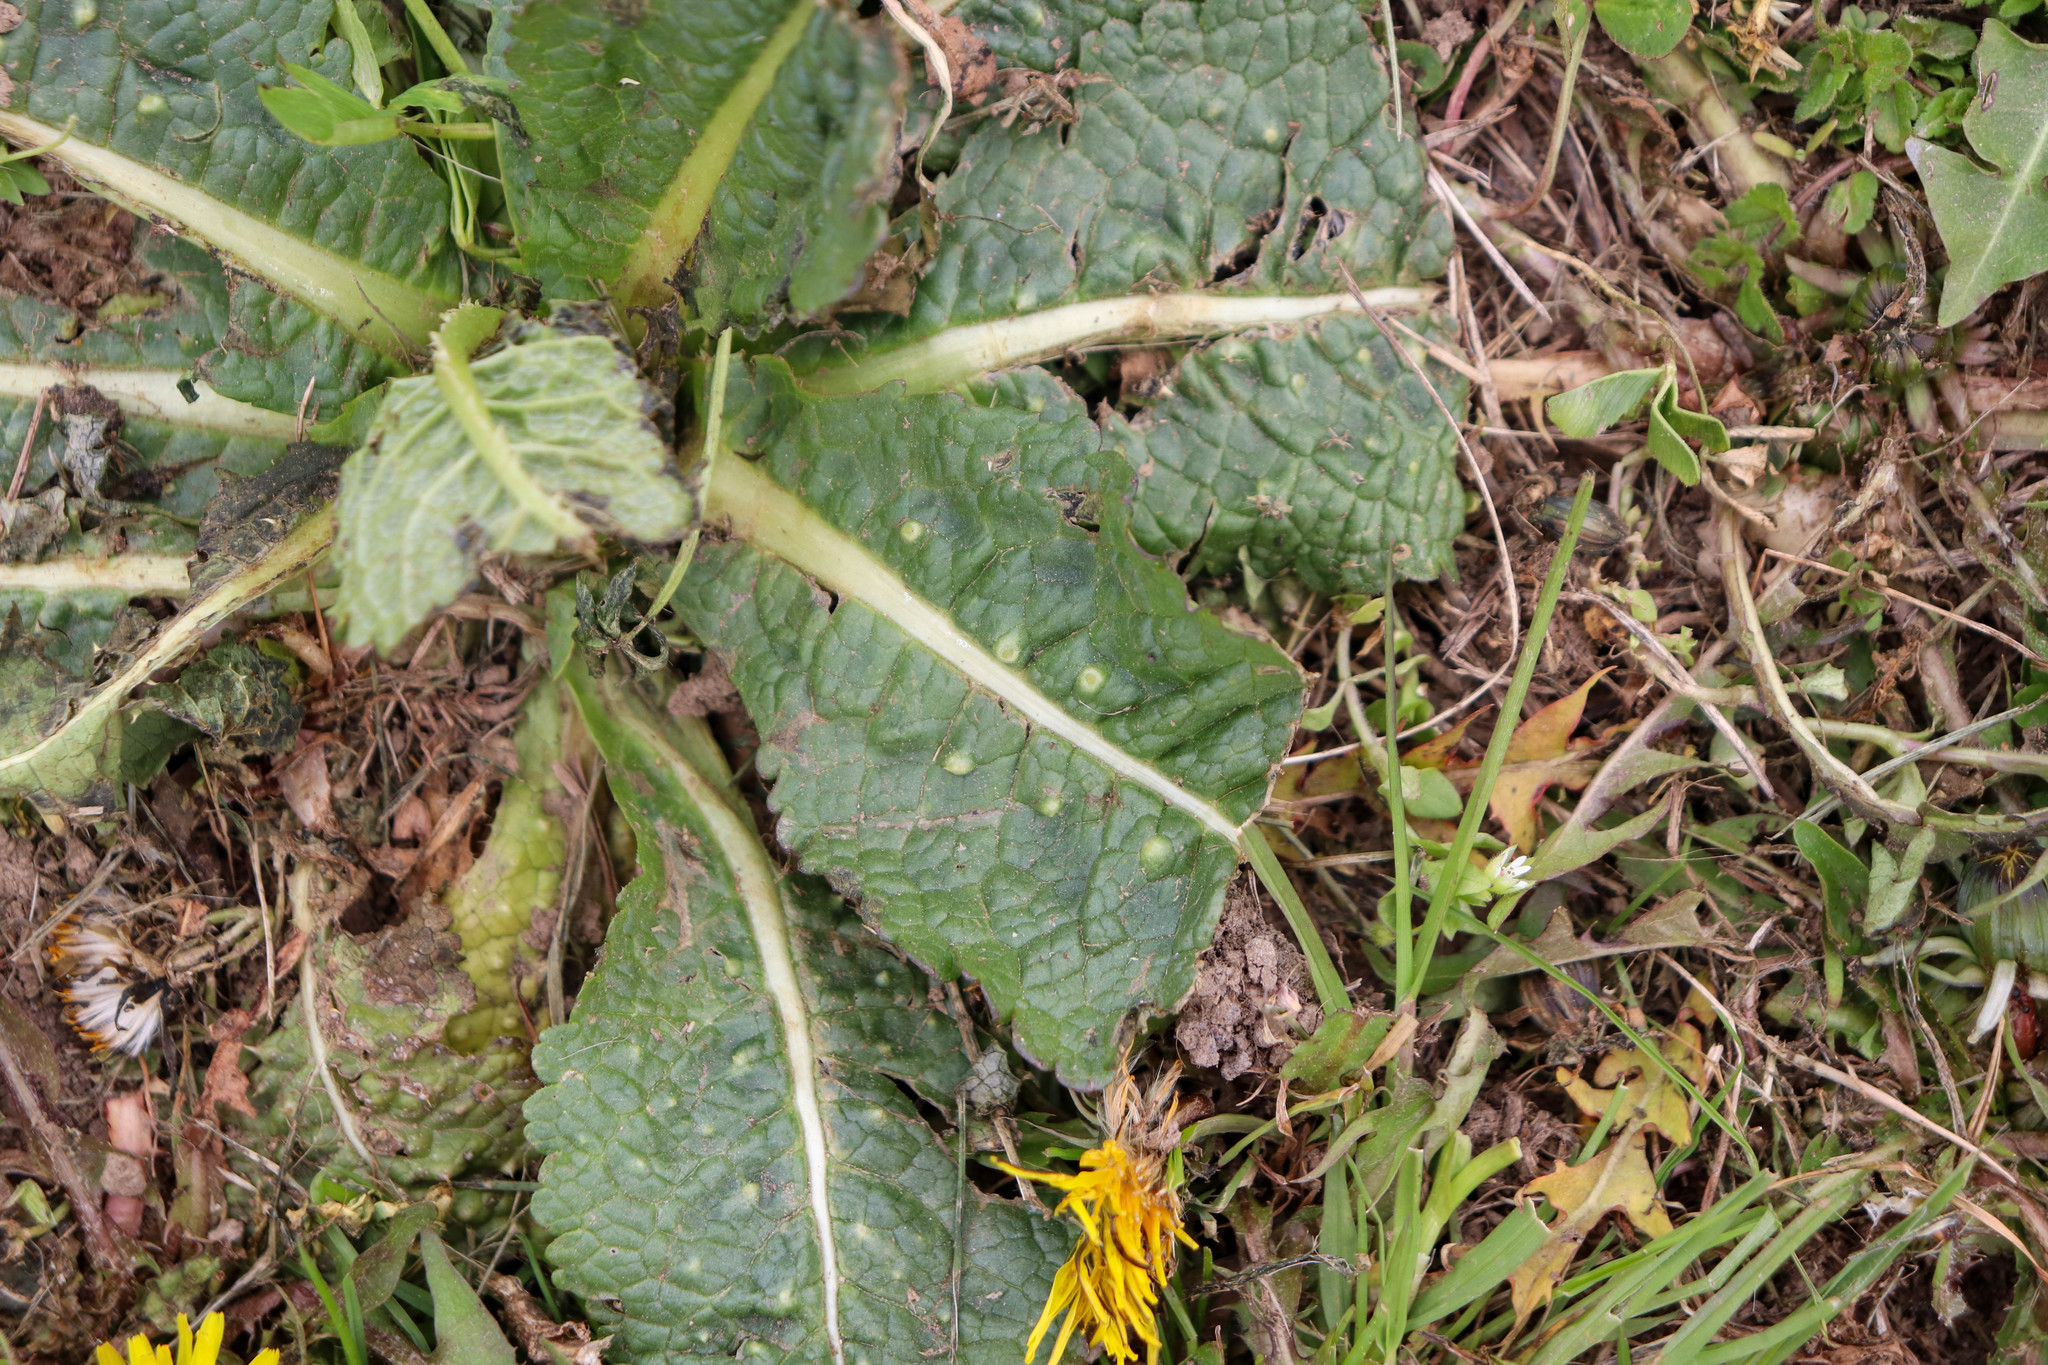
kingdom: Plantae
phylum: Tracheophyta
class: Magnoliopsida
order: Dipsacales
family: Caprifoliaceae
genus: Dipsacus
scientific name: Dipsacus fullonum
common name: Teasel
